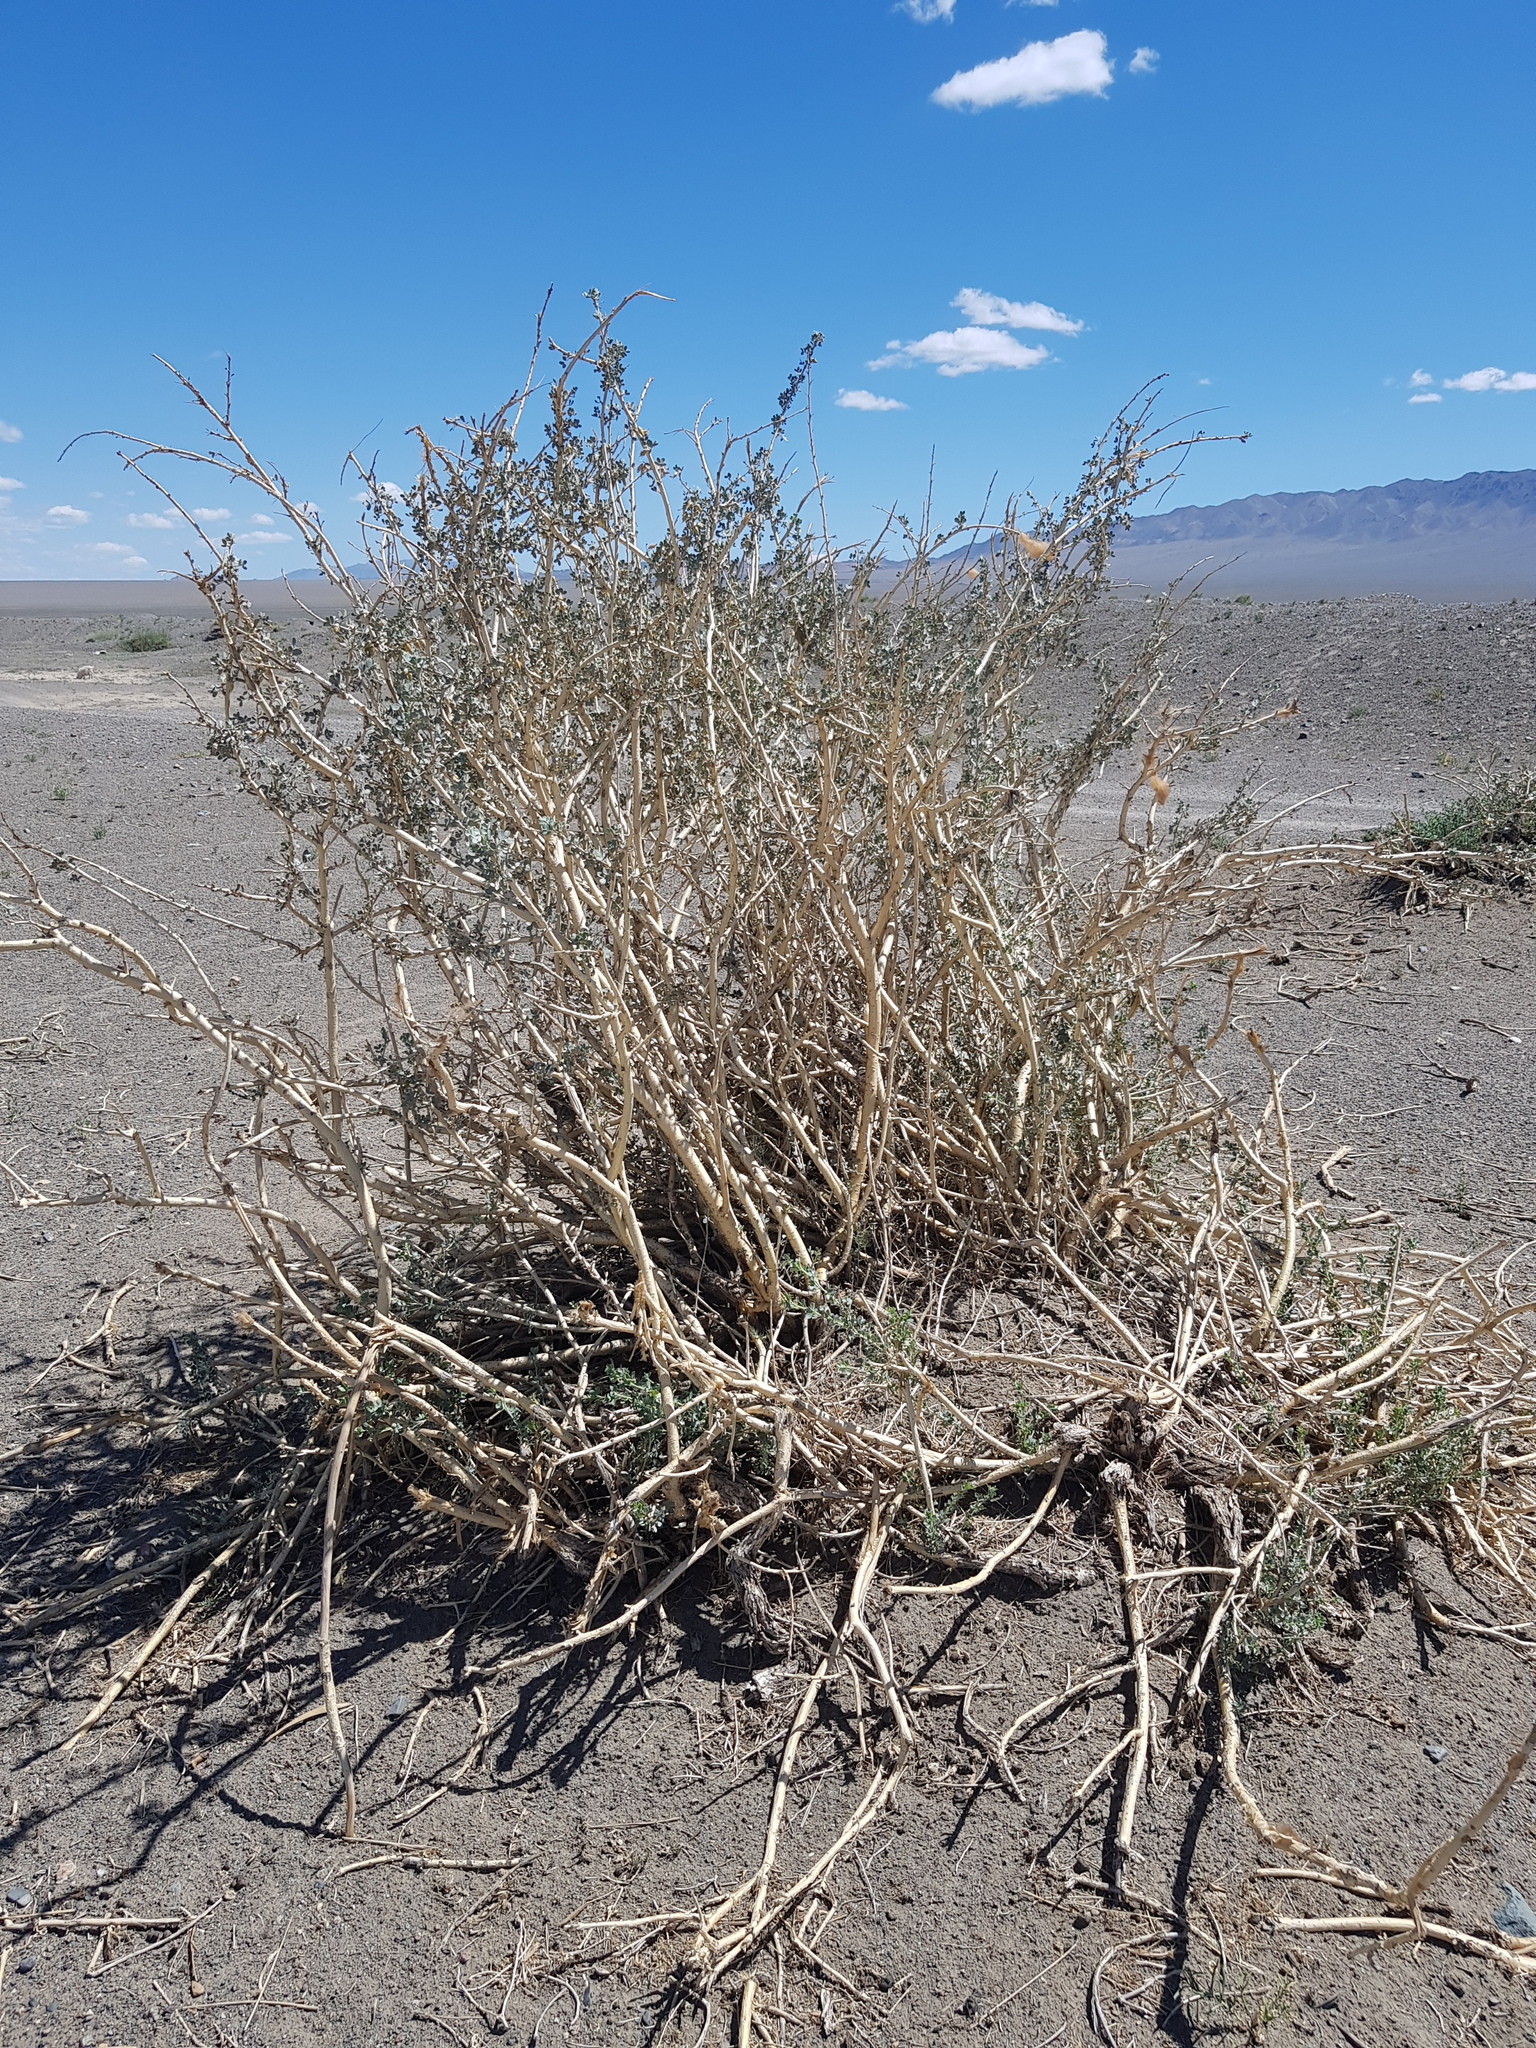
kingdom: Plantae
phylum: Tracheophyta
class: Magnoliopsida
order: Fabales
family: Fabaceae
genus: Caragana
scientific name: Caragana bungei
